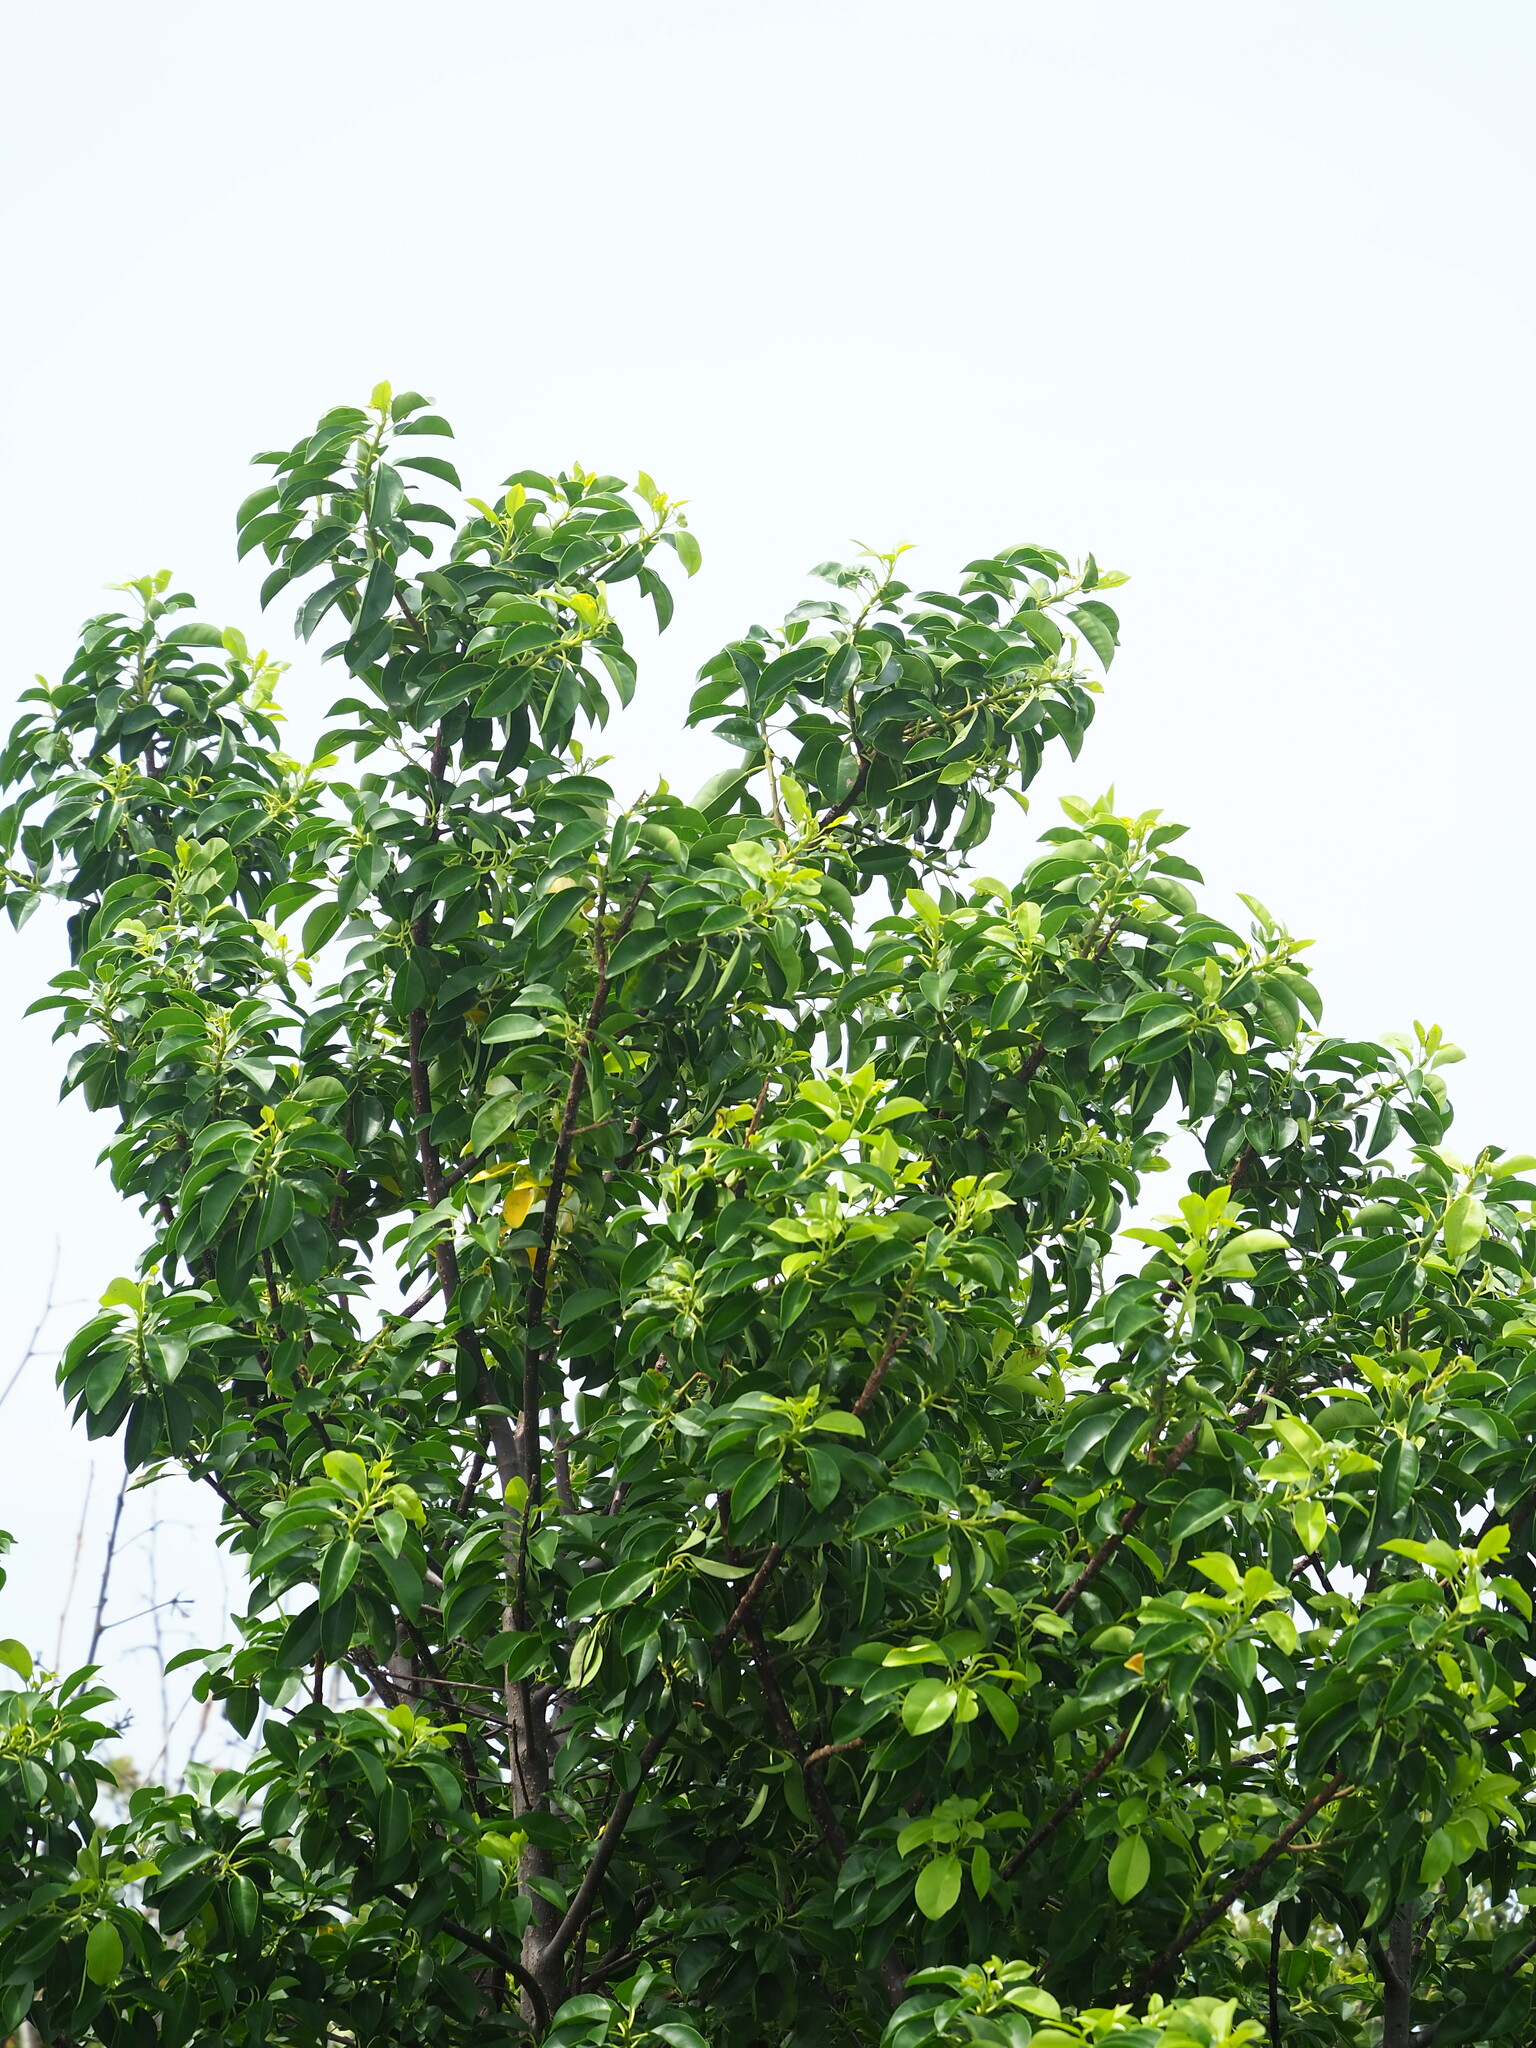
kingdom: Plantae
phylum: Tracheophyta
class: Magnoliopsida
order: Malpighiales
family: Euphorbiaceae
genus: Excoecaria
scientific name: Excoecaria agallocha
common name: River poisontree
